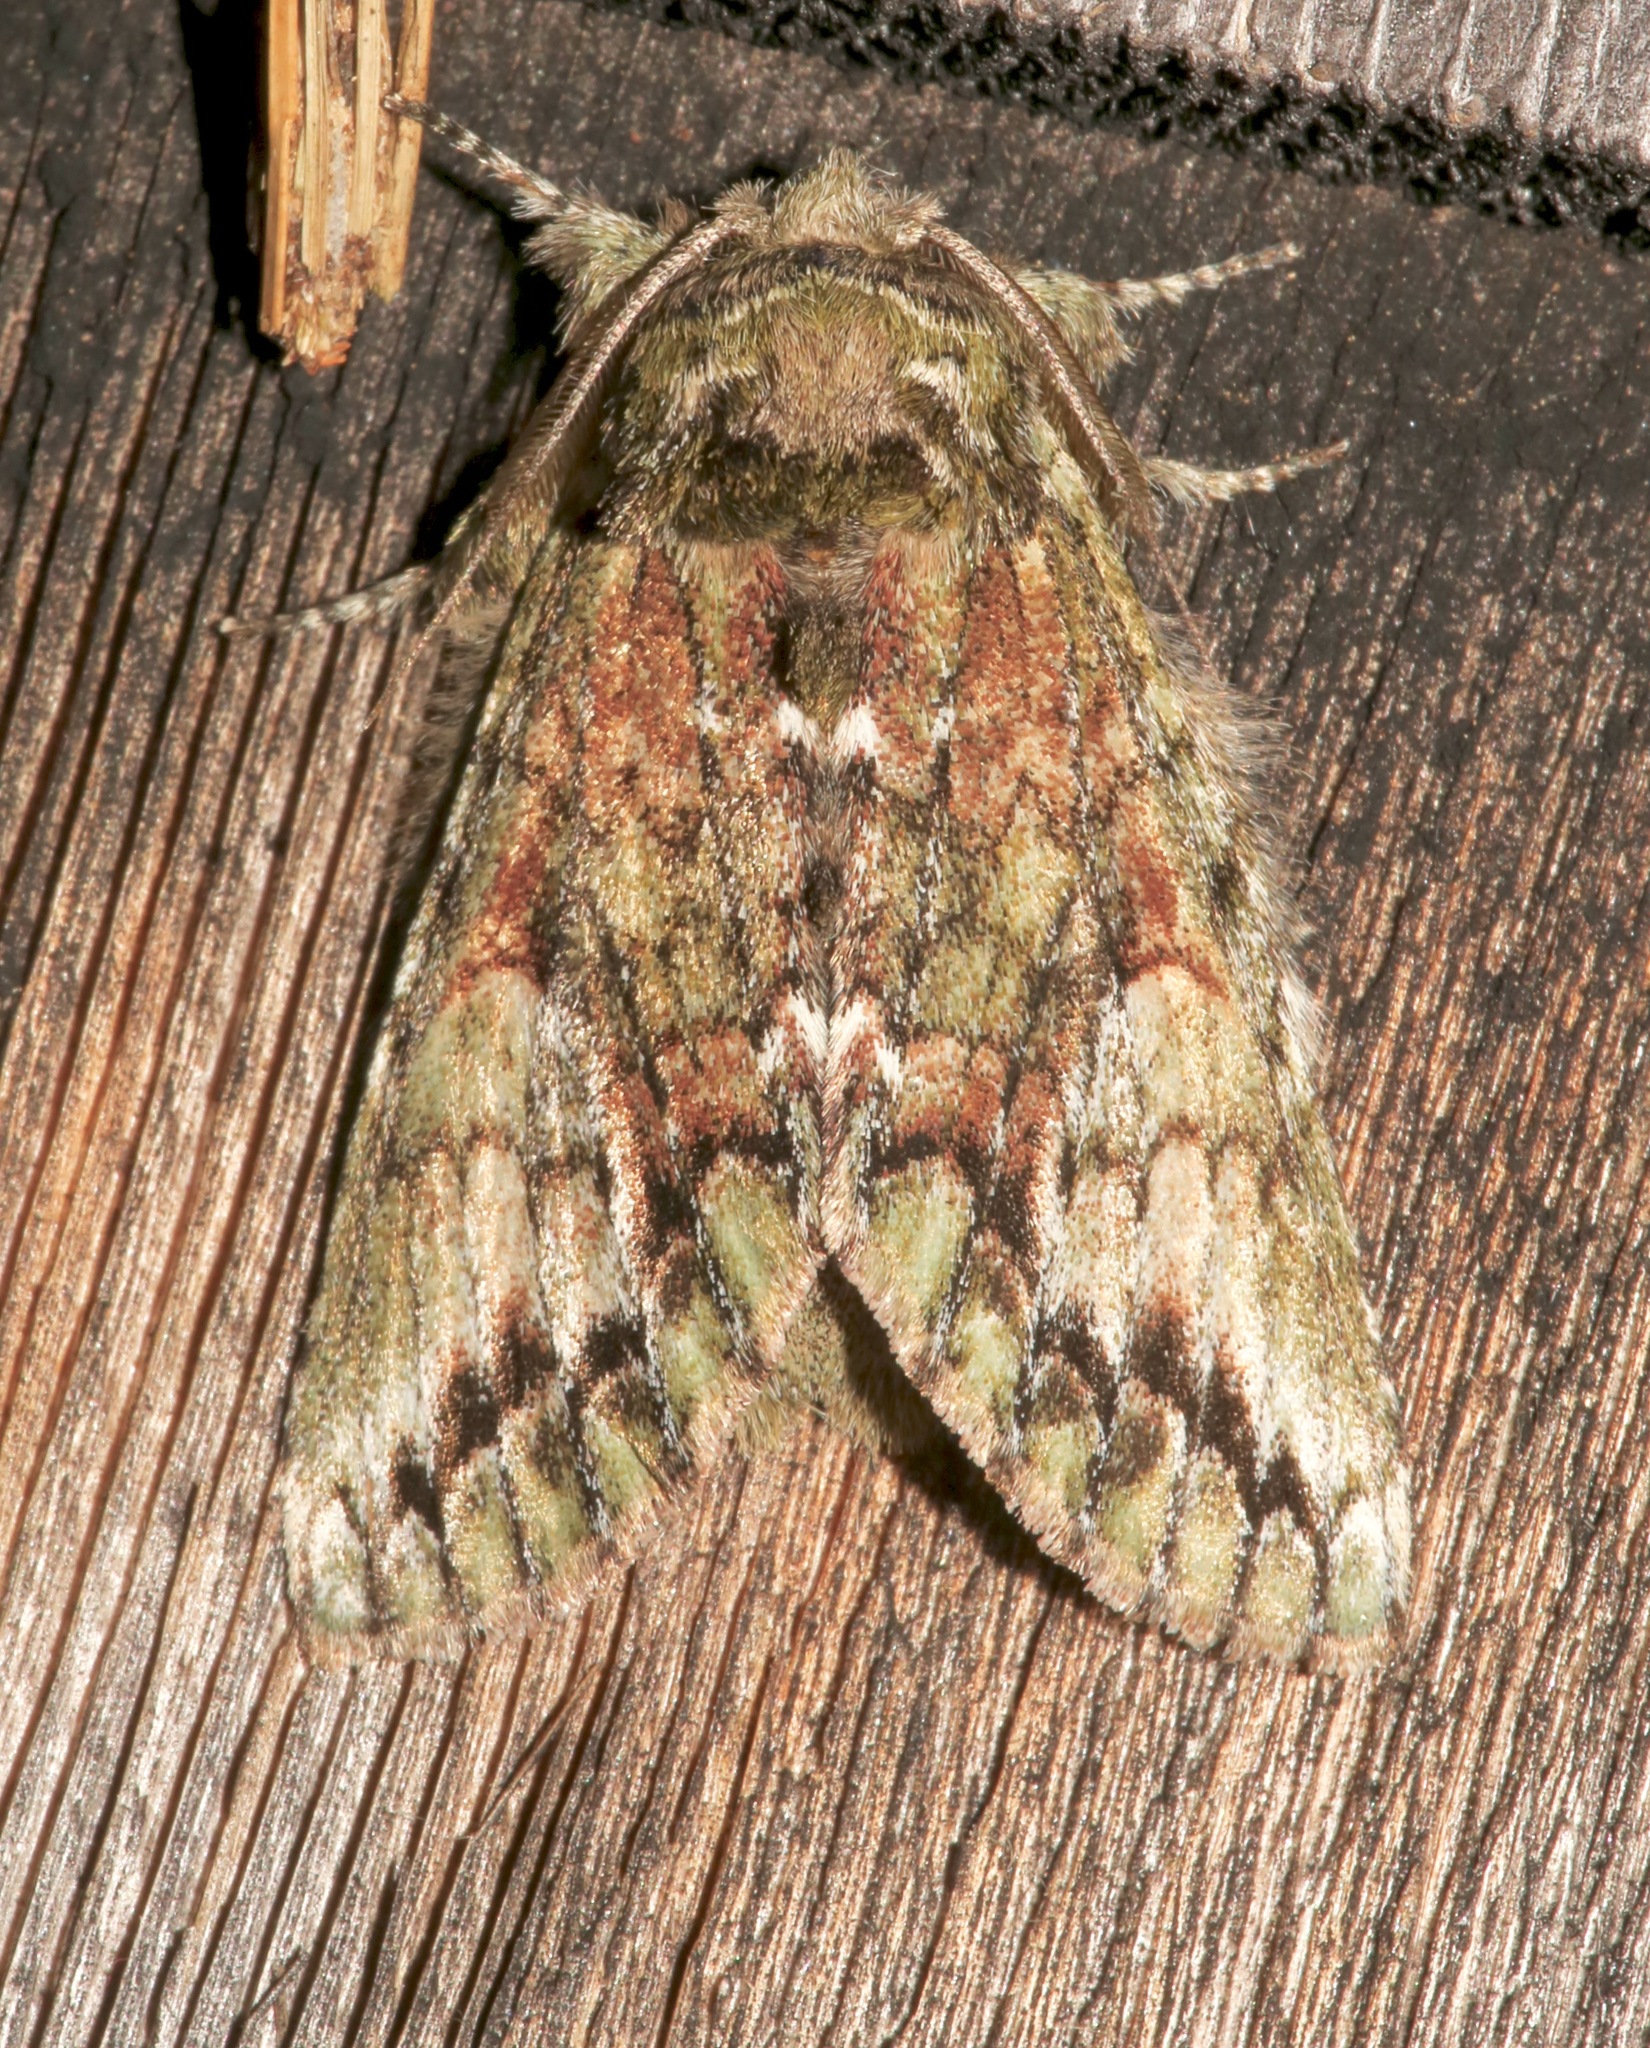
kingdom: Animalia
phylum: Arthropoda
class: Insecta
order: Lepidoptera
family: Notodontidae
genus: Heterocampa
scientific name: Heterocampa
